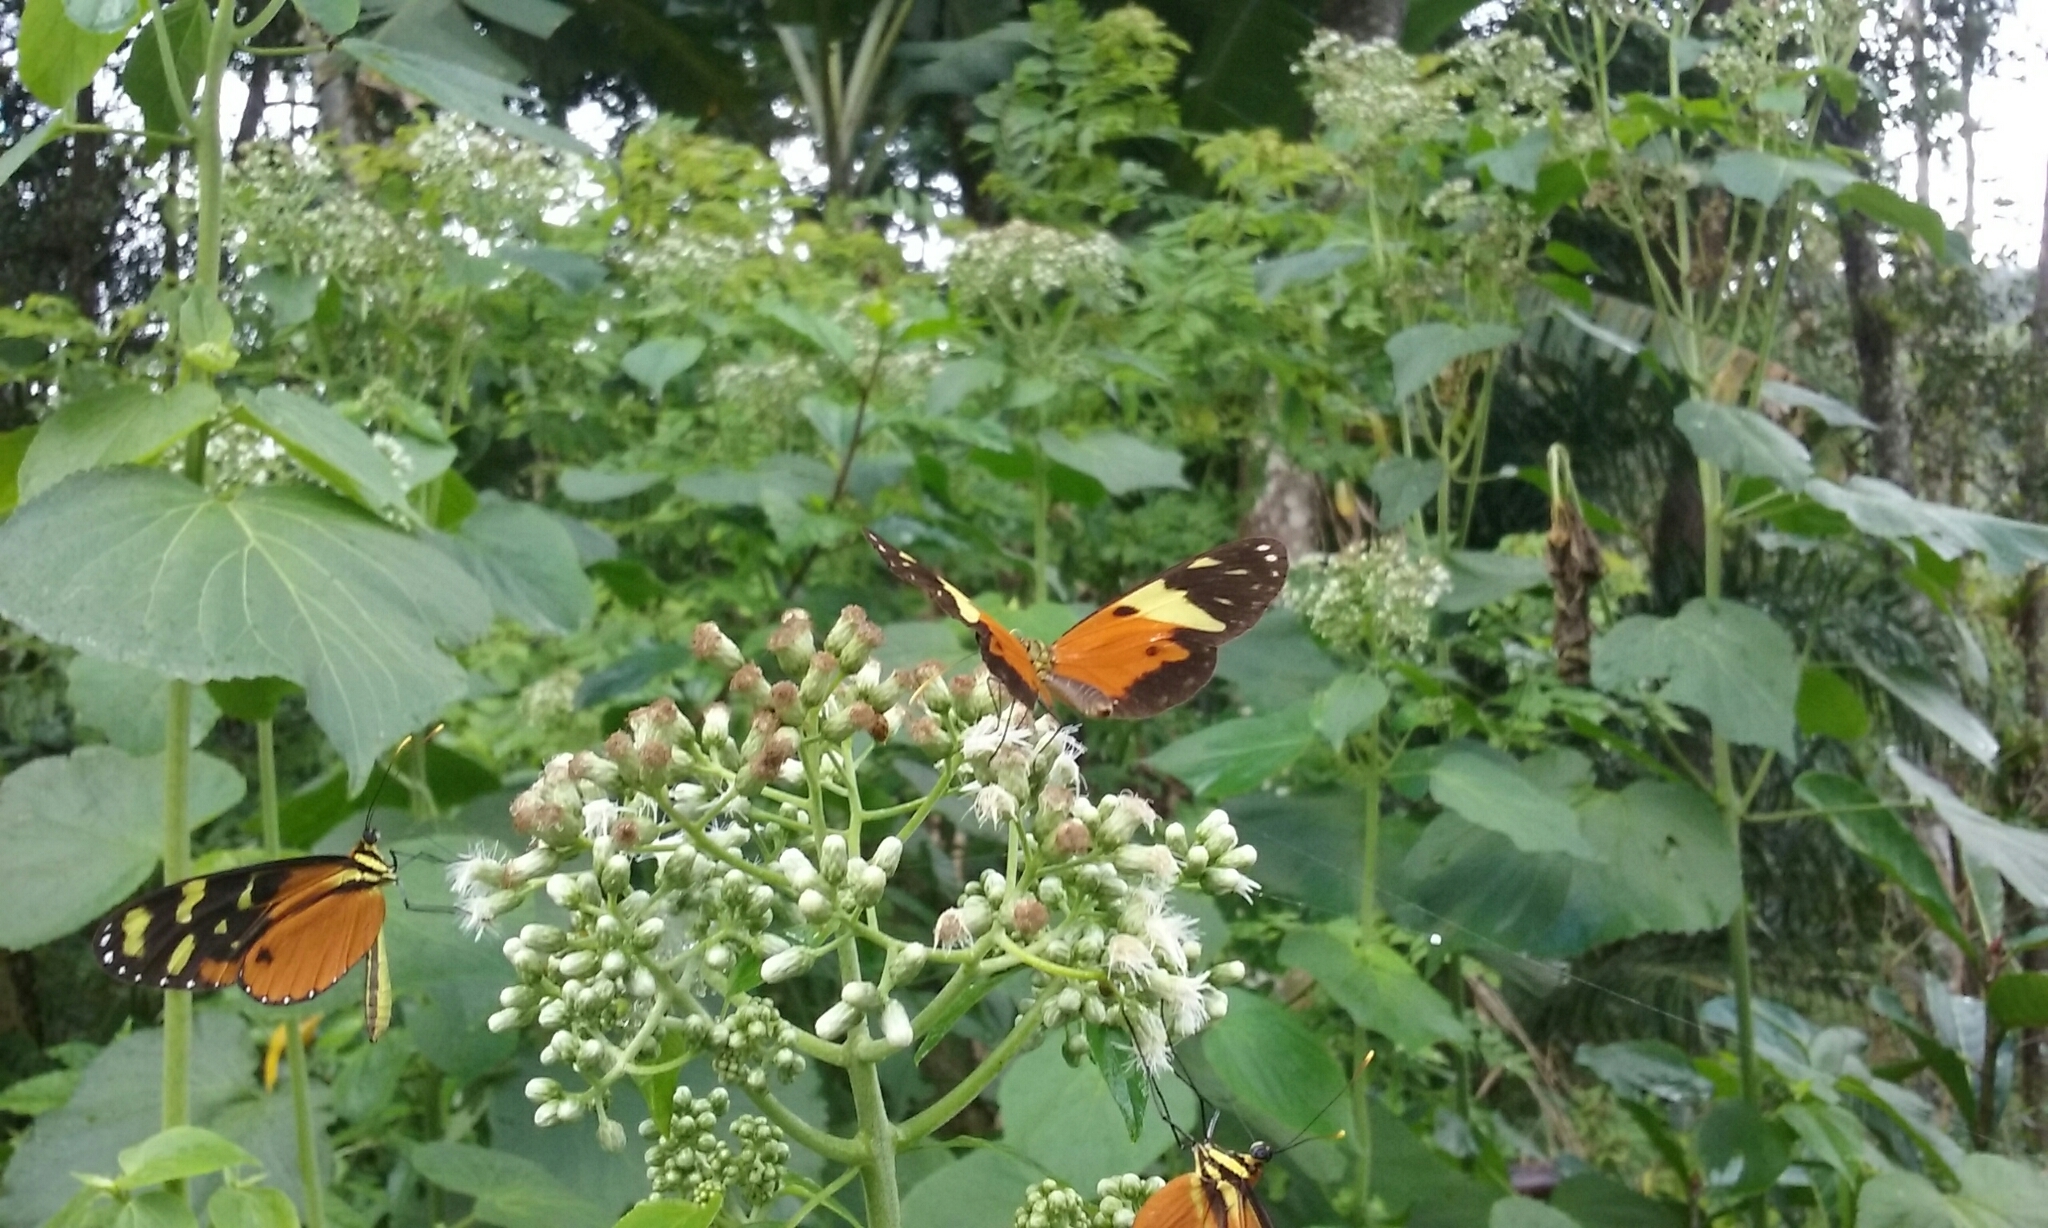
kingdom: Animalia
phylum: Arthropoda
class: Insecta
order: Lepidoptera
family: Nymphalidae
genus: Mechanitis
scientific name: Mechanitis polymnia
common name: Disturbed tigerwing
